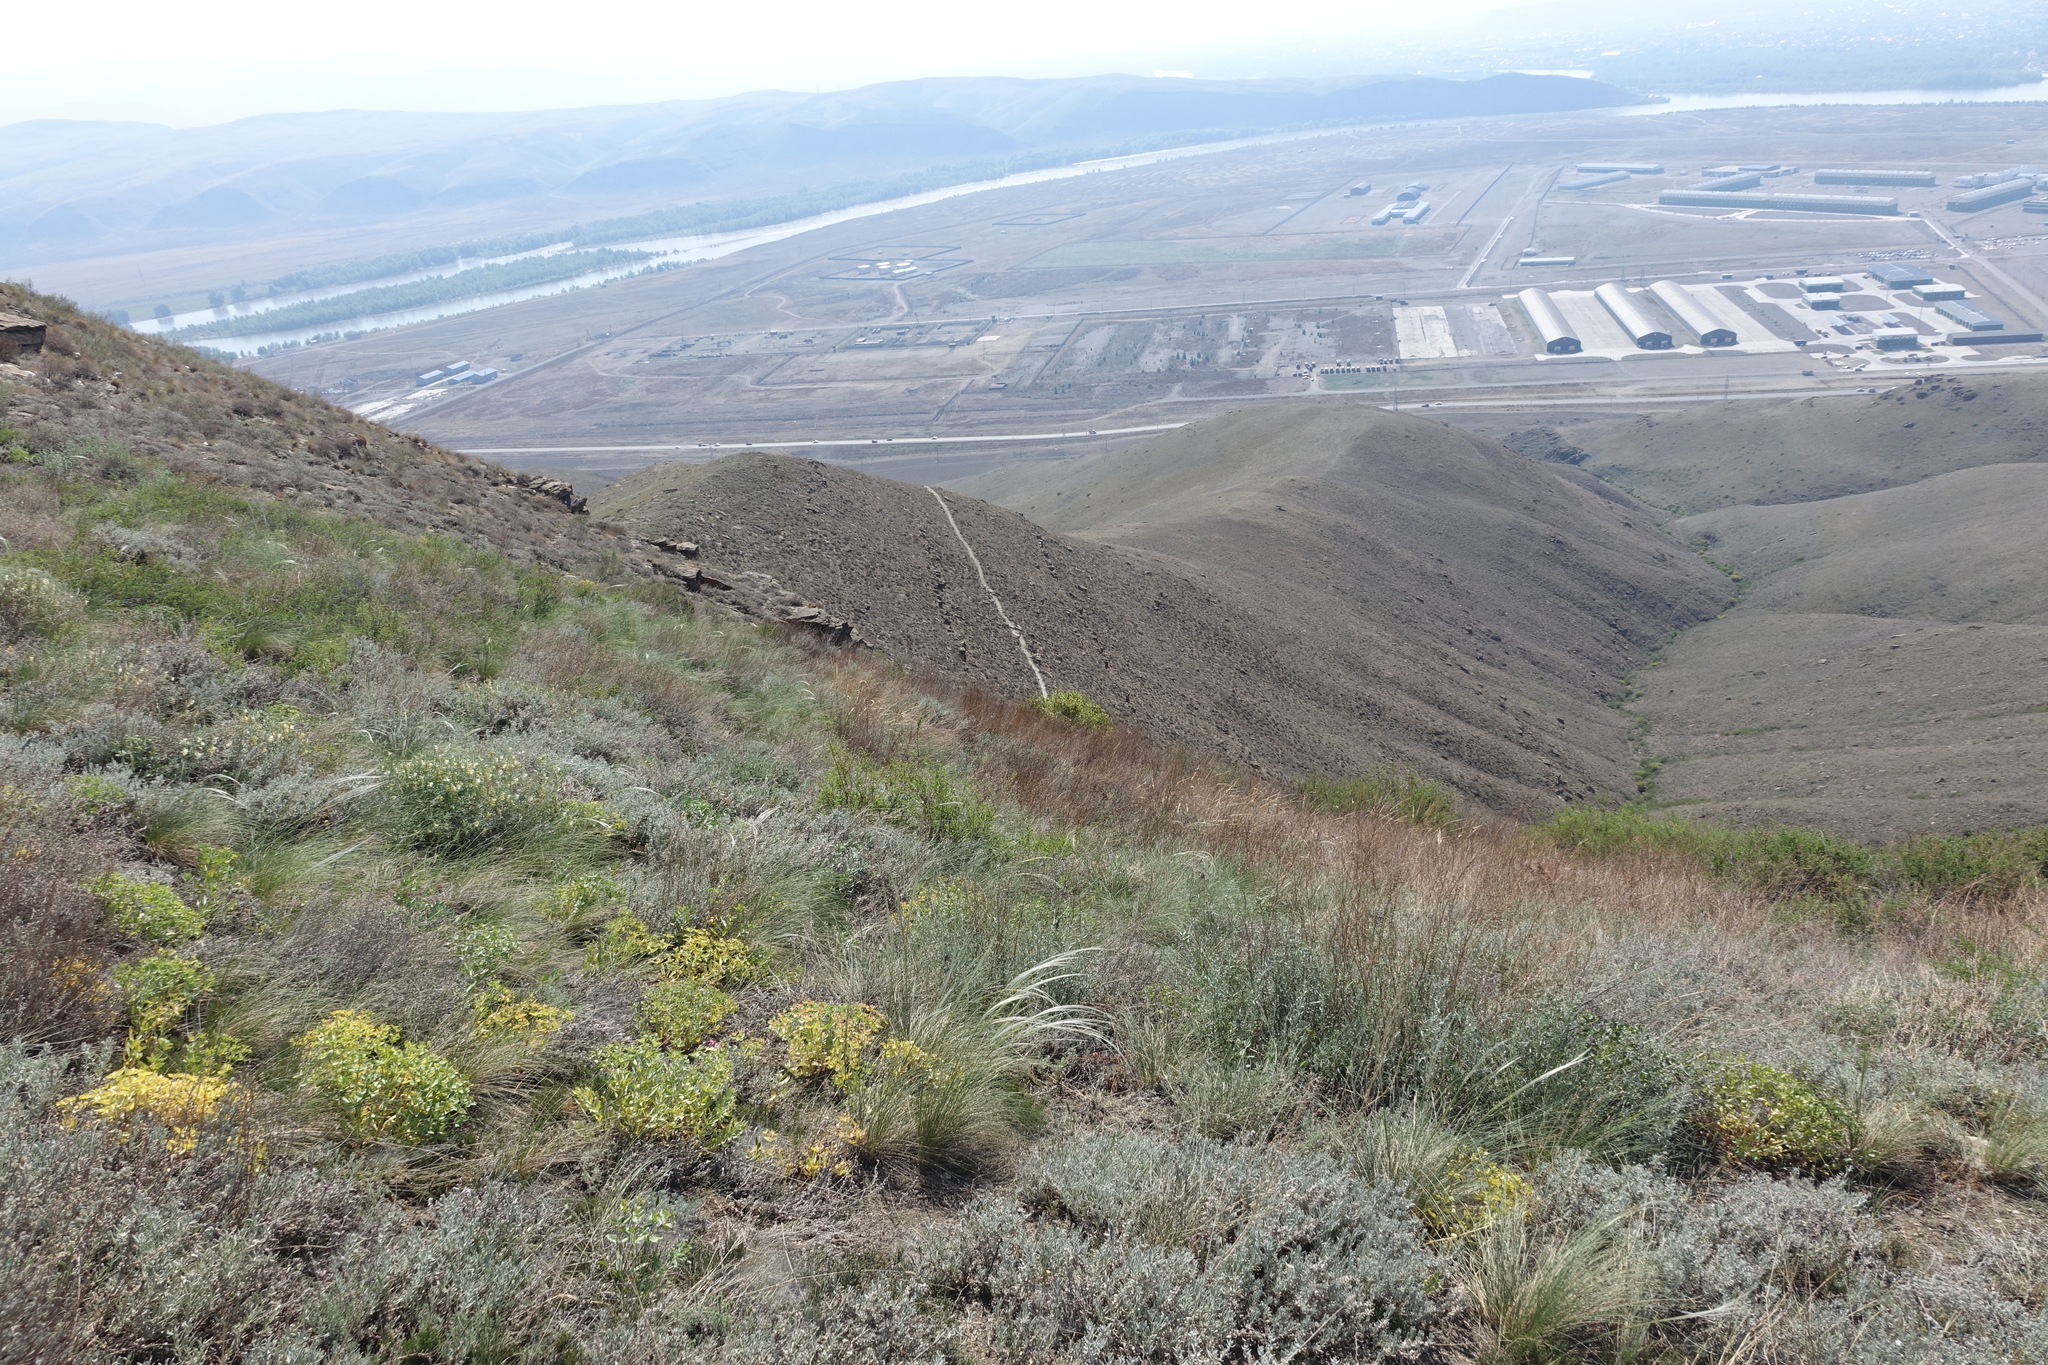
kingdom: Plantae
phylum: Tracheophyta
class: Liliopsida
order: Poales
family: Poaceae
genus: Stipa
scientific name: Stipa pennata
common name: European feather grass
